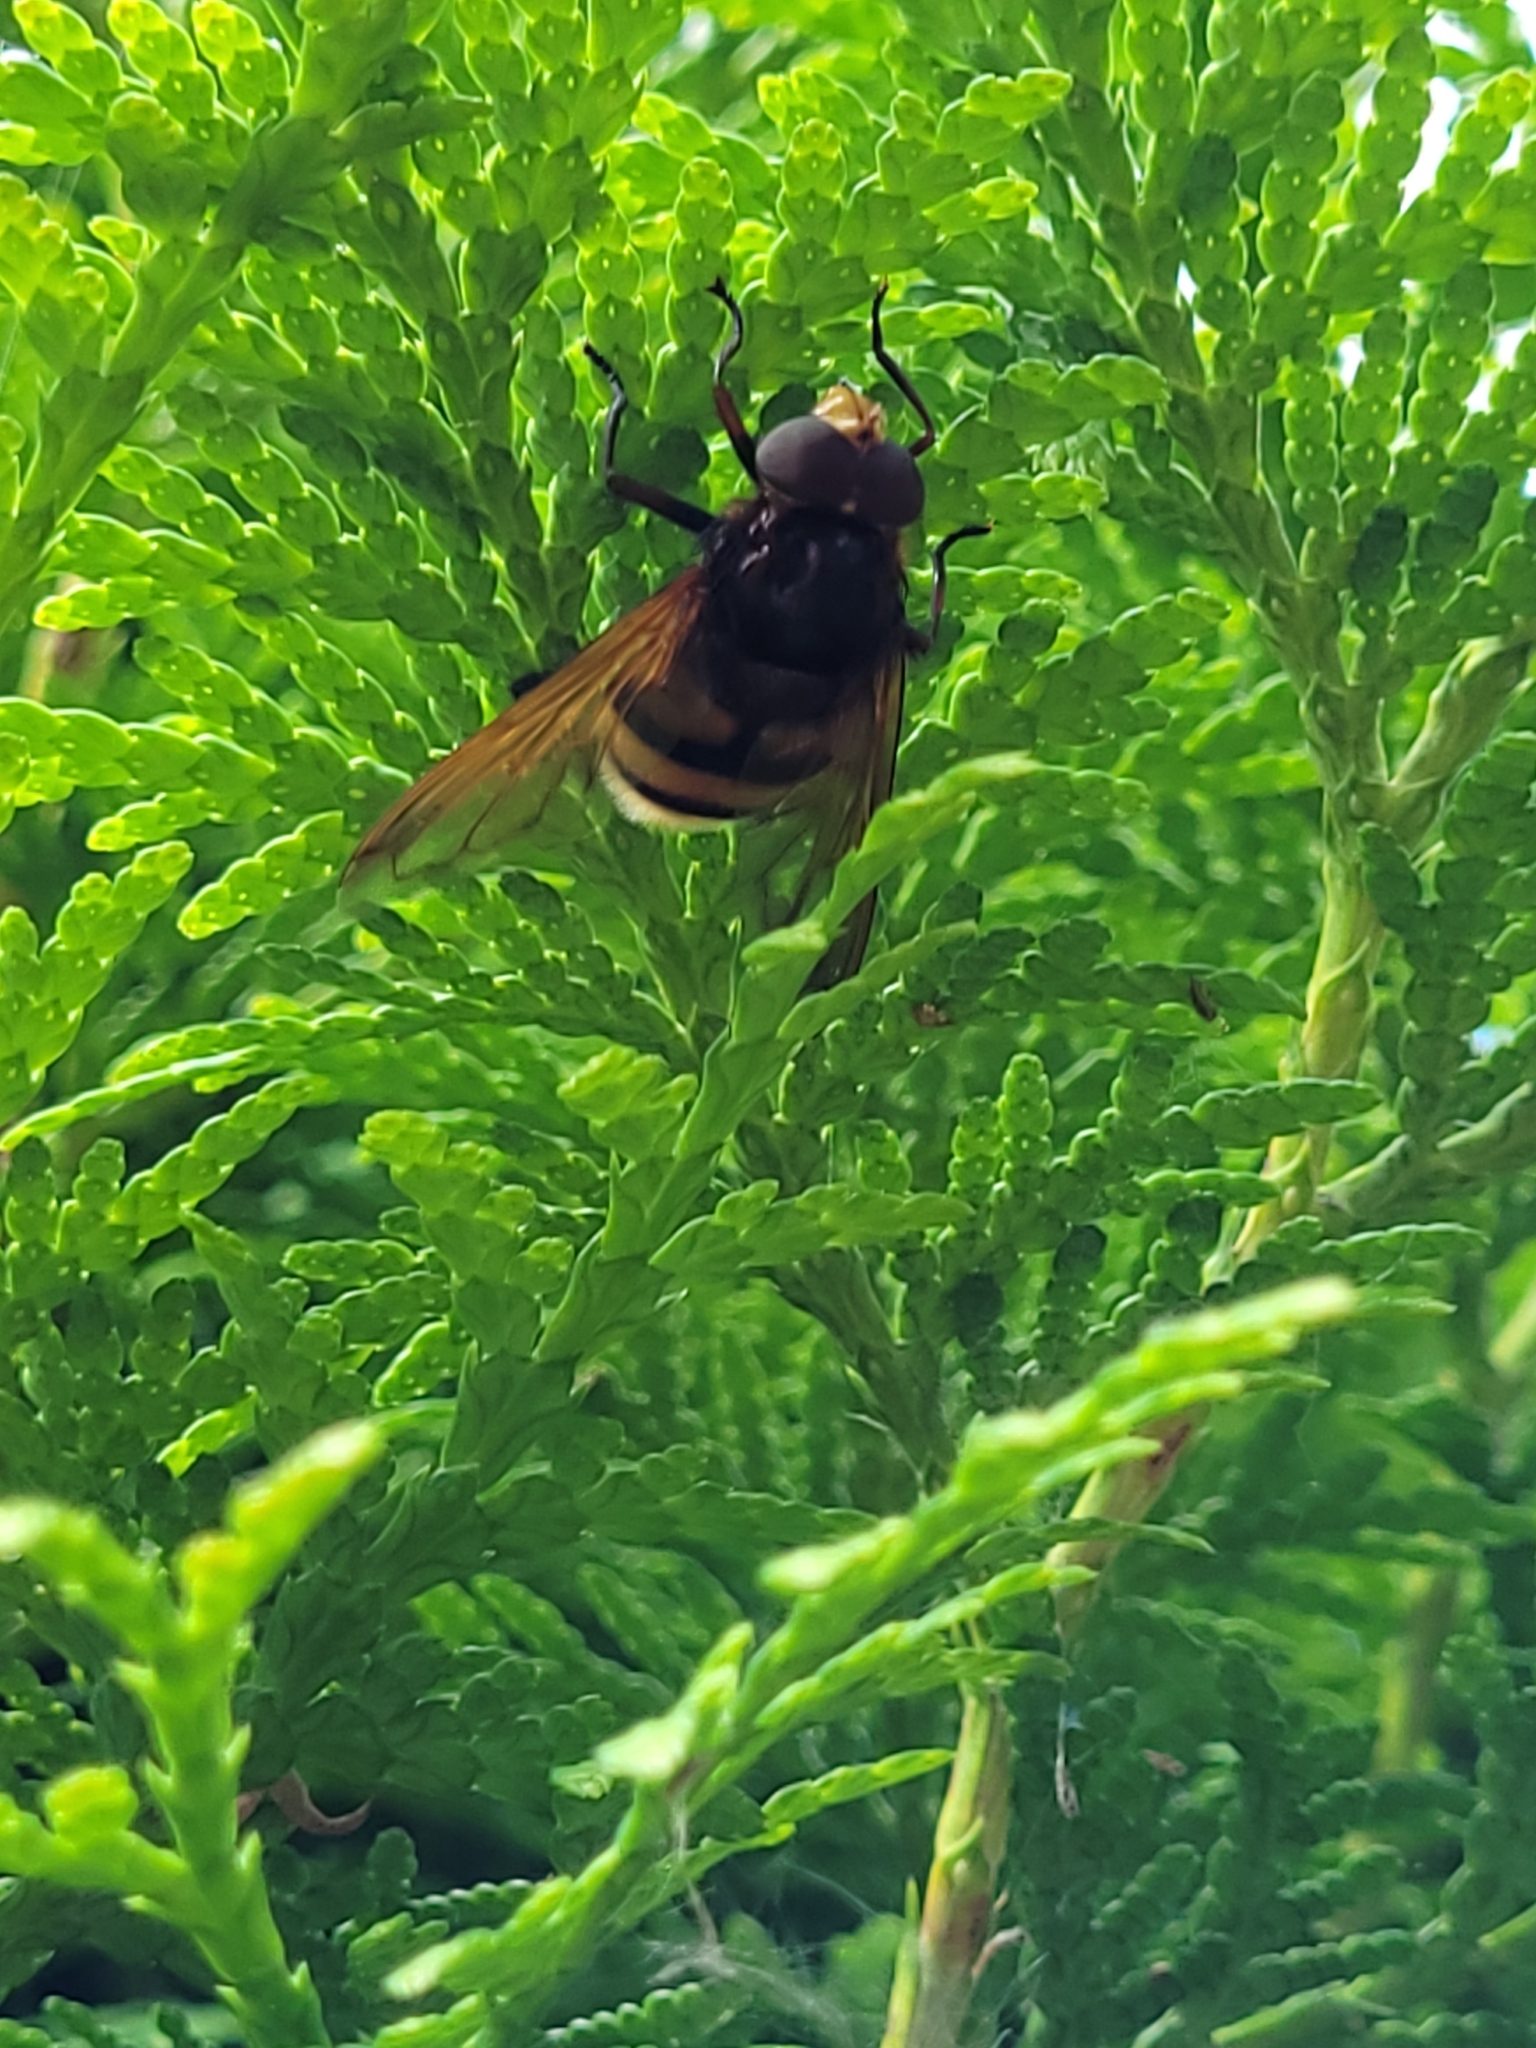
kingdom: Animalia
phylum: Arthropoda
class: Insecta
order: Diptera
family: Syrphidae
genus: Volucella
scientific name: Volucella zonaria
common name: Hornet hoverfly
